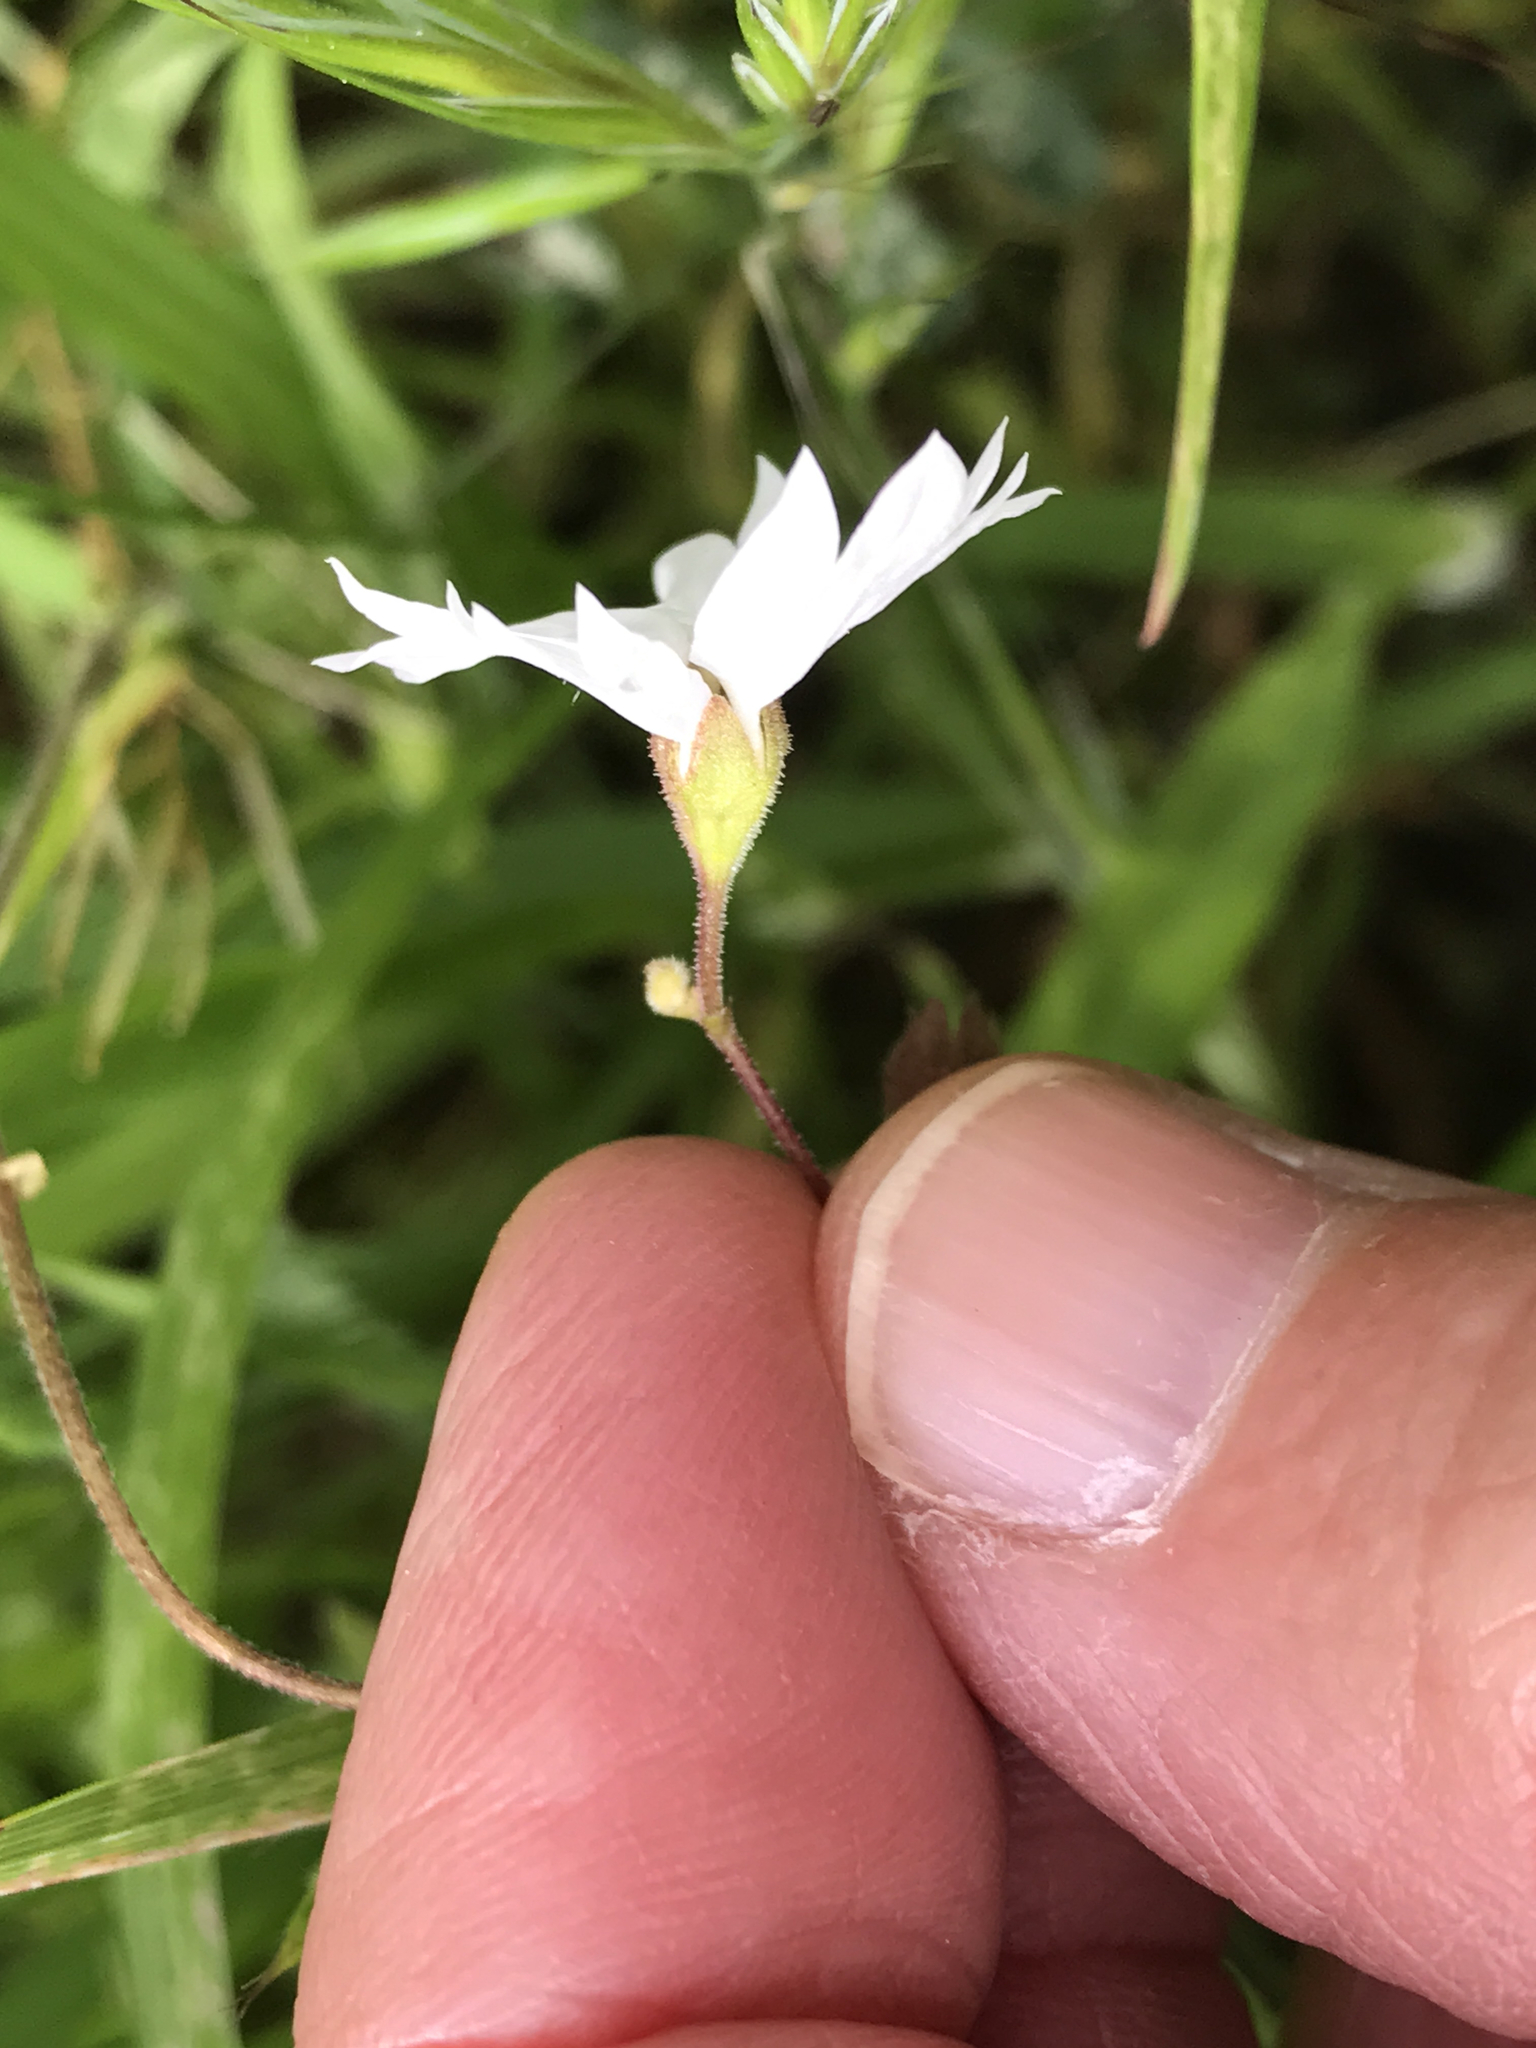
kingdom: Plantae
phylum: Tracheophyta
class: Magnoliopsida
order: Saxifragales
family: Saxifragaceae
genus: Lithophragma
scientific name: Lithophragma affine
